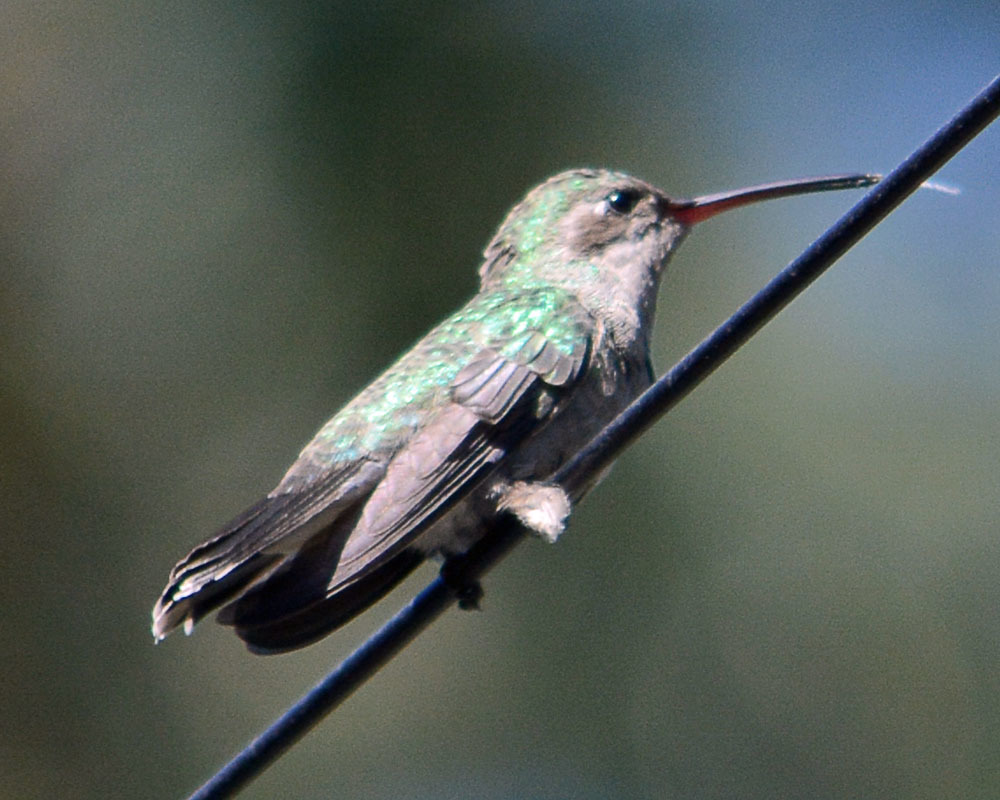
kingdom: Animalia
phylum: Chordata
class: Aves
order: Apodiformes
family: Trochilidae
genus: Cynanthus
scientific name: Cynanthus latirostris
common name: Broad-billed hummingbird
